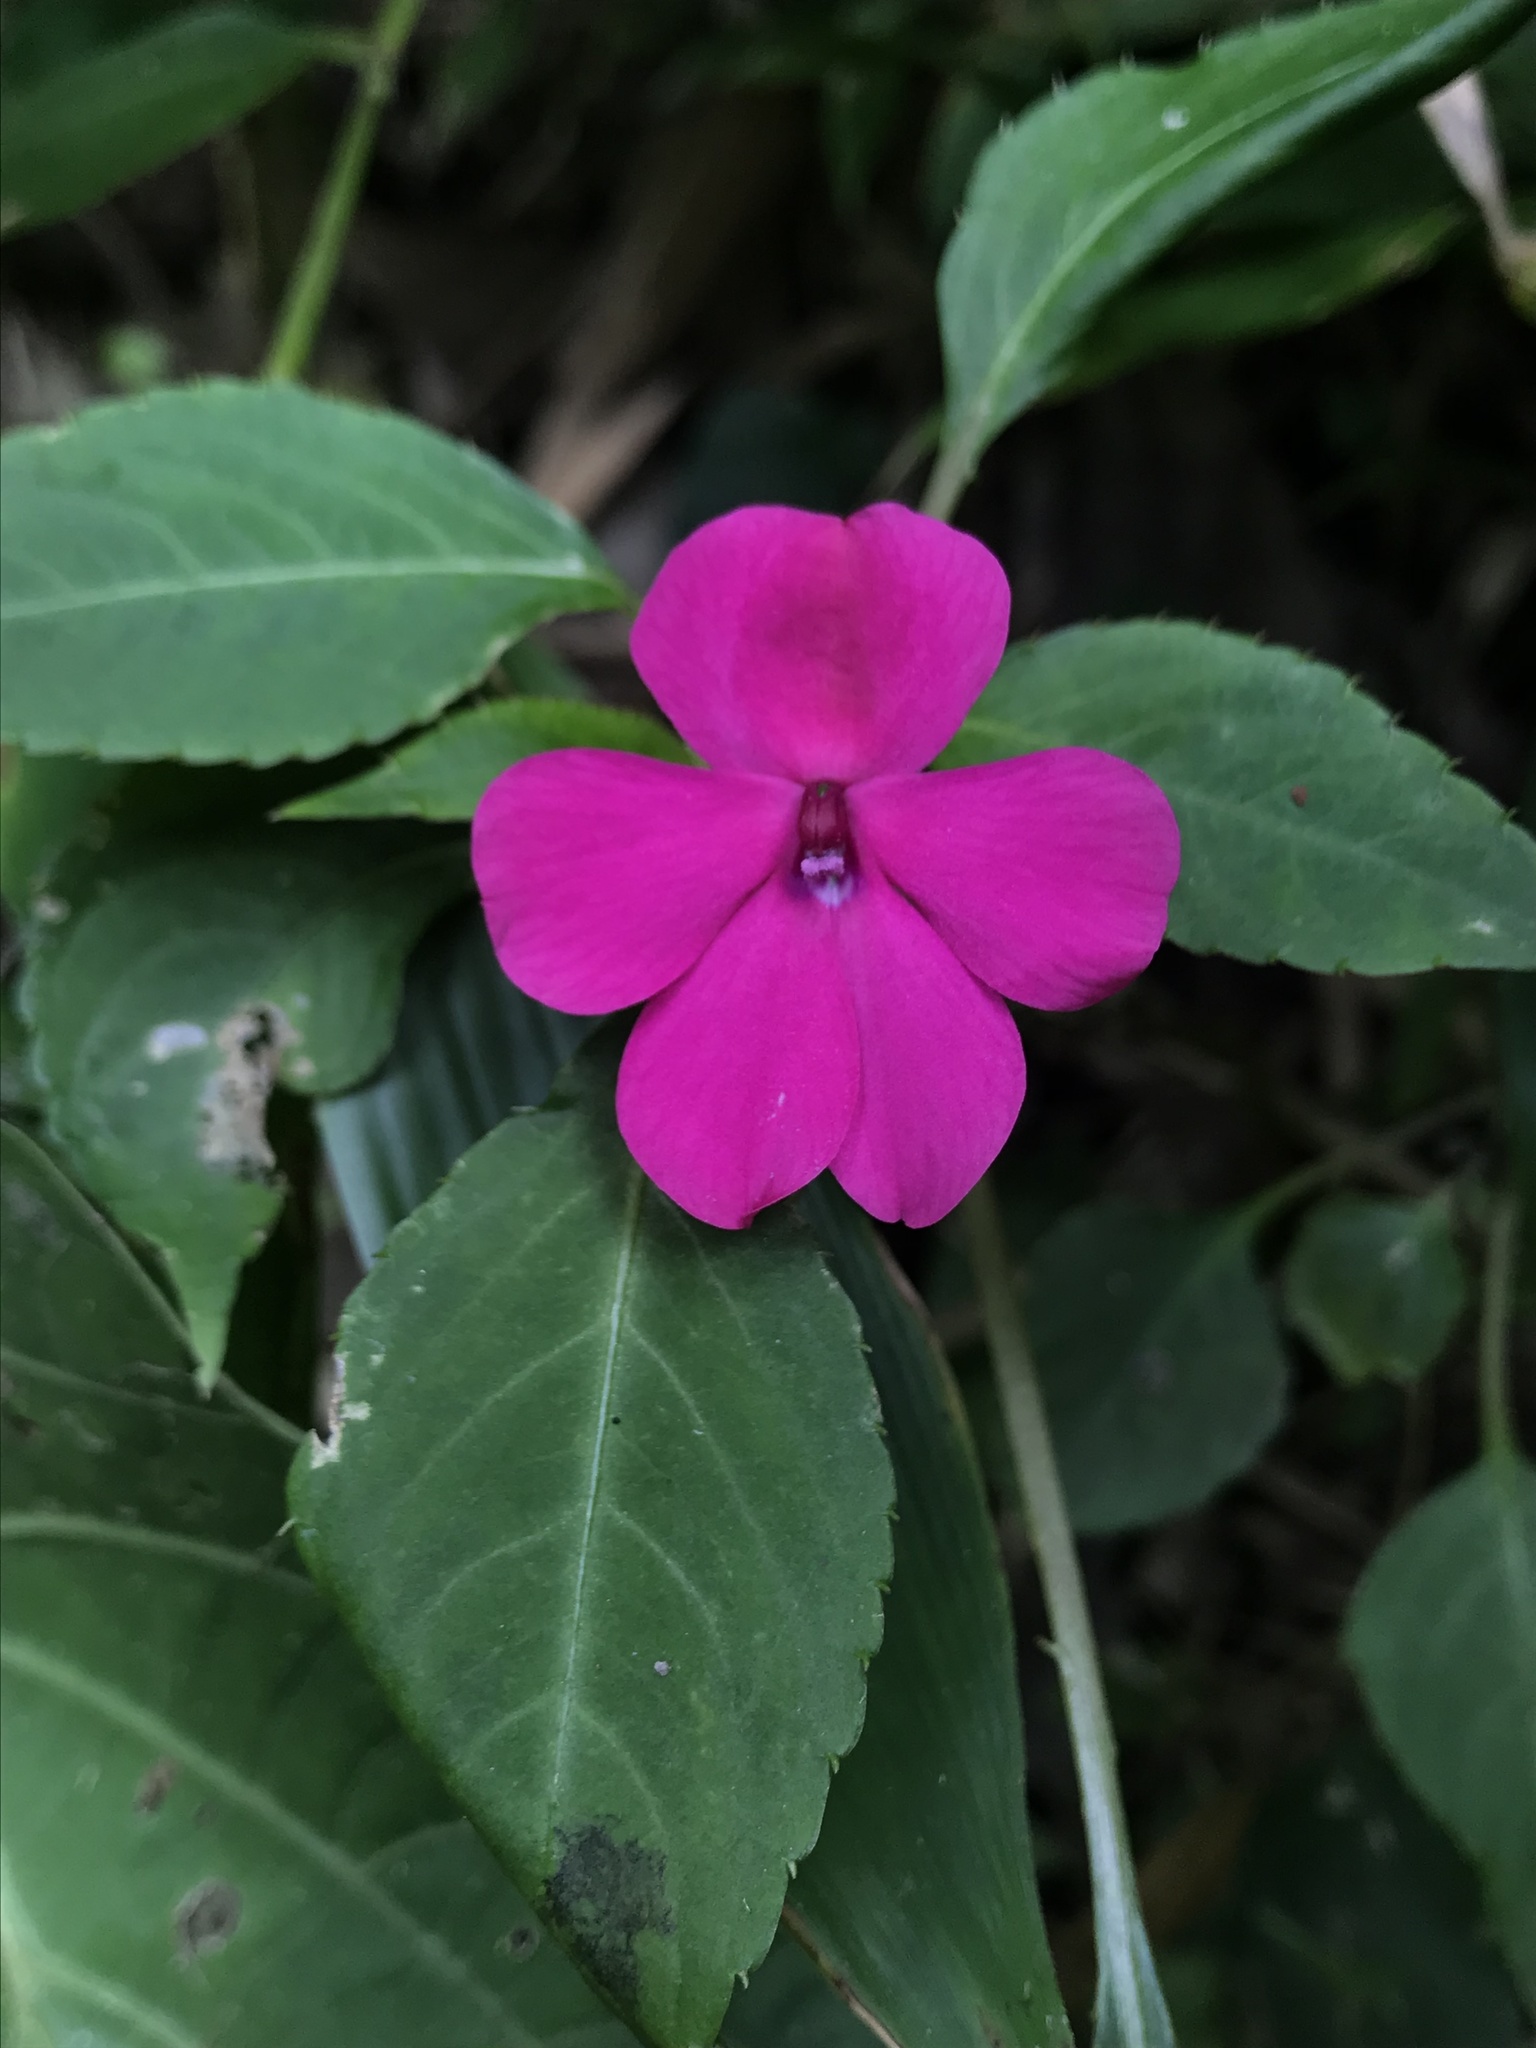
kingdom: Plantae
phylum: Tracheophyta
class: Magnoliopsida
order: Ericales
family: Balsaminaceae
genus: Impatiens
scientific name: Impatiens walleriana
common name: Buzzy lizzy
